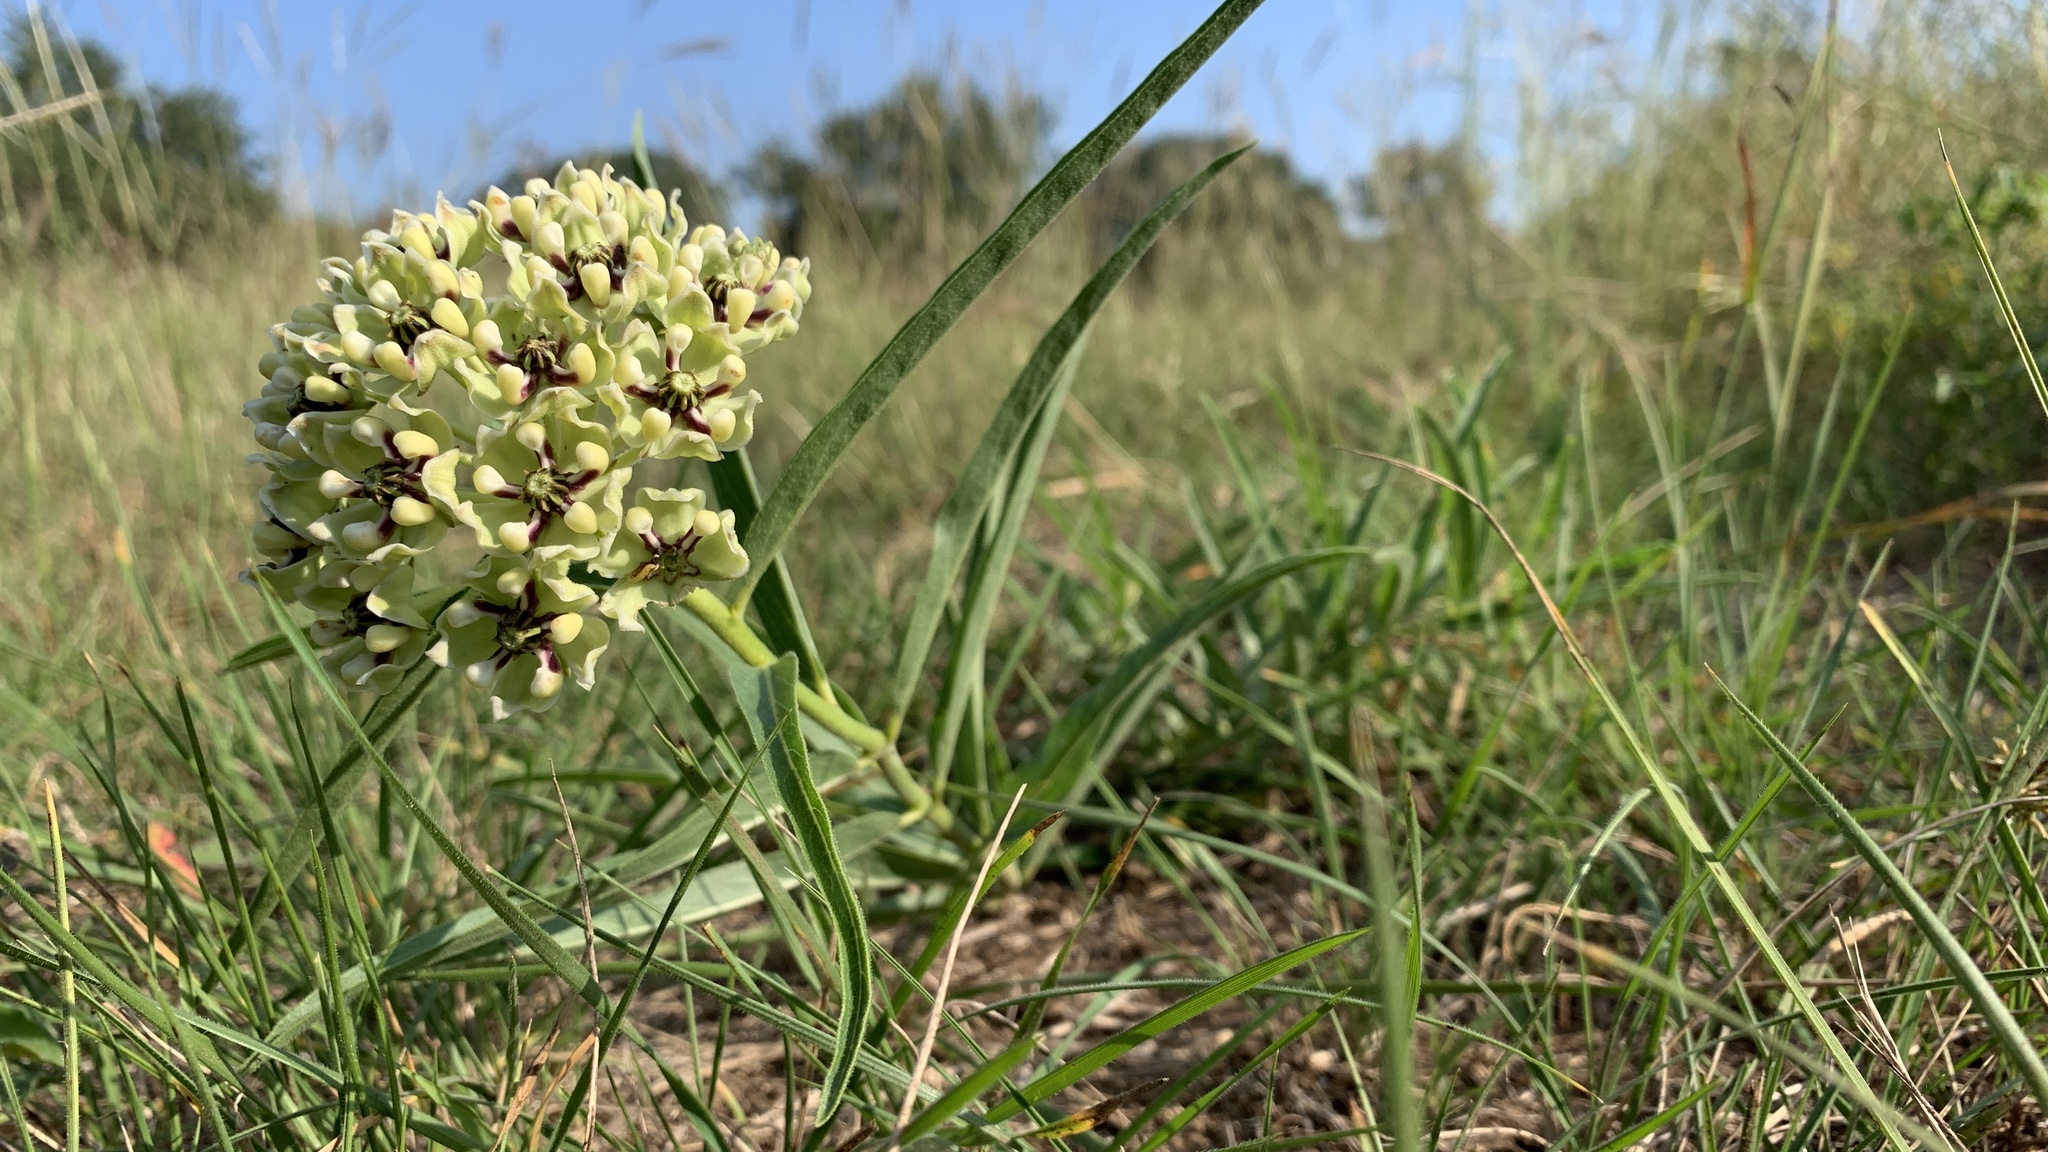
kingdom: Plantae
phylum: Tracheophyta
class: Magnoliopsida
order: Gentianales
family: Apocynaceae
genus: Asclepias
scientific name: Asclepias asperula
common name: Antelope horns
